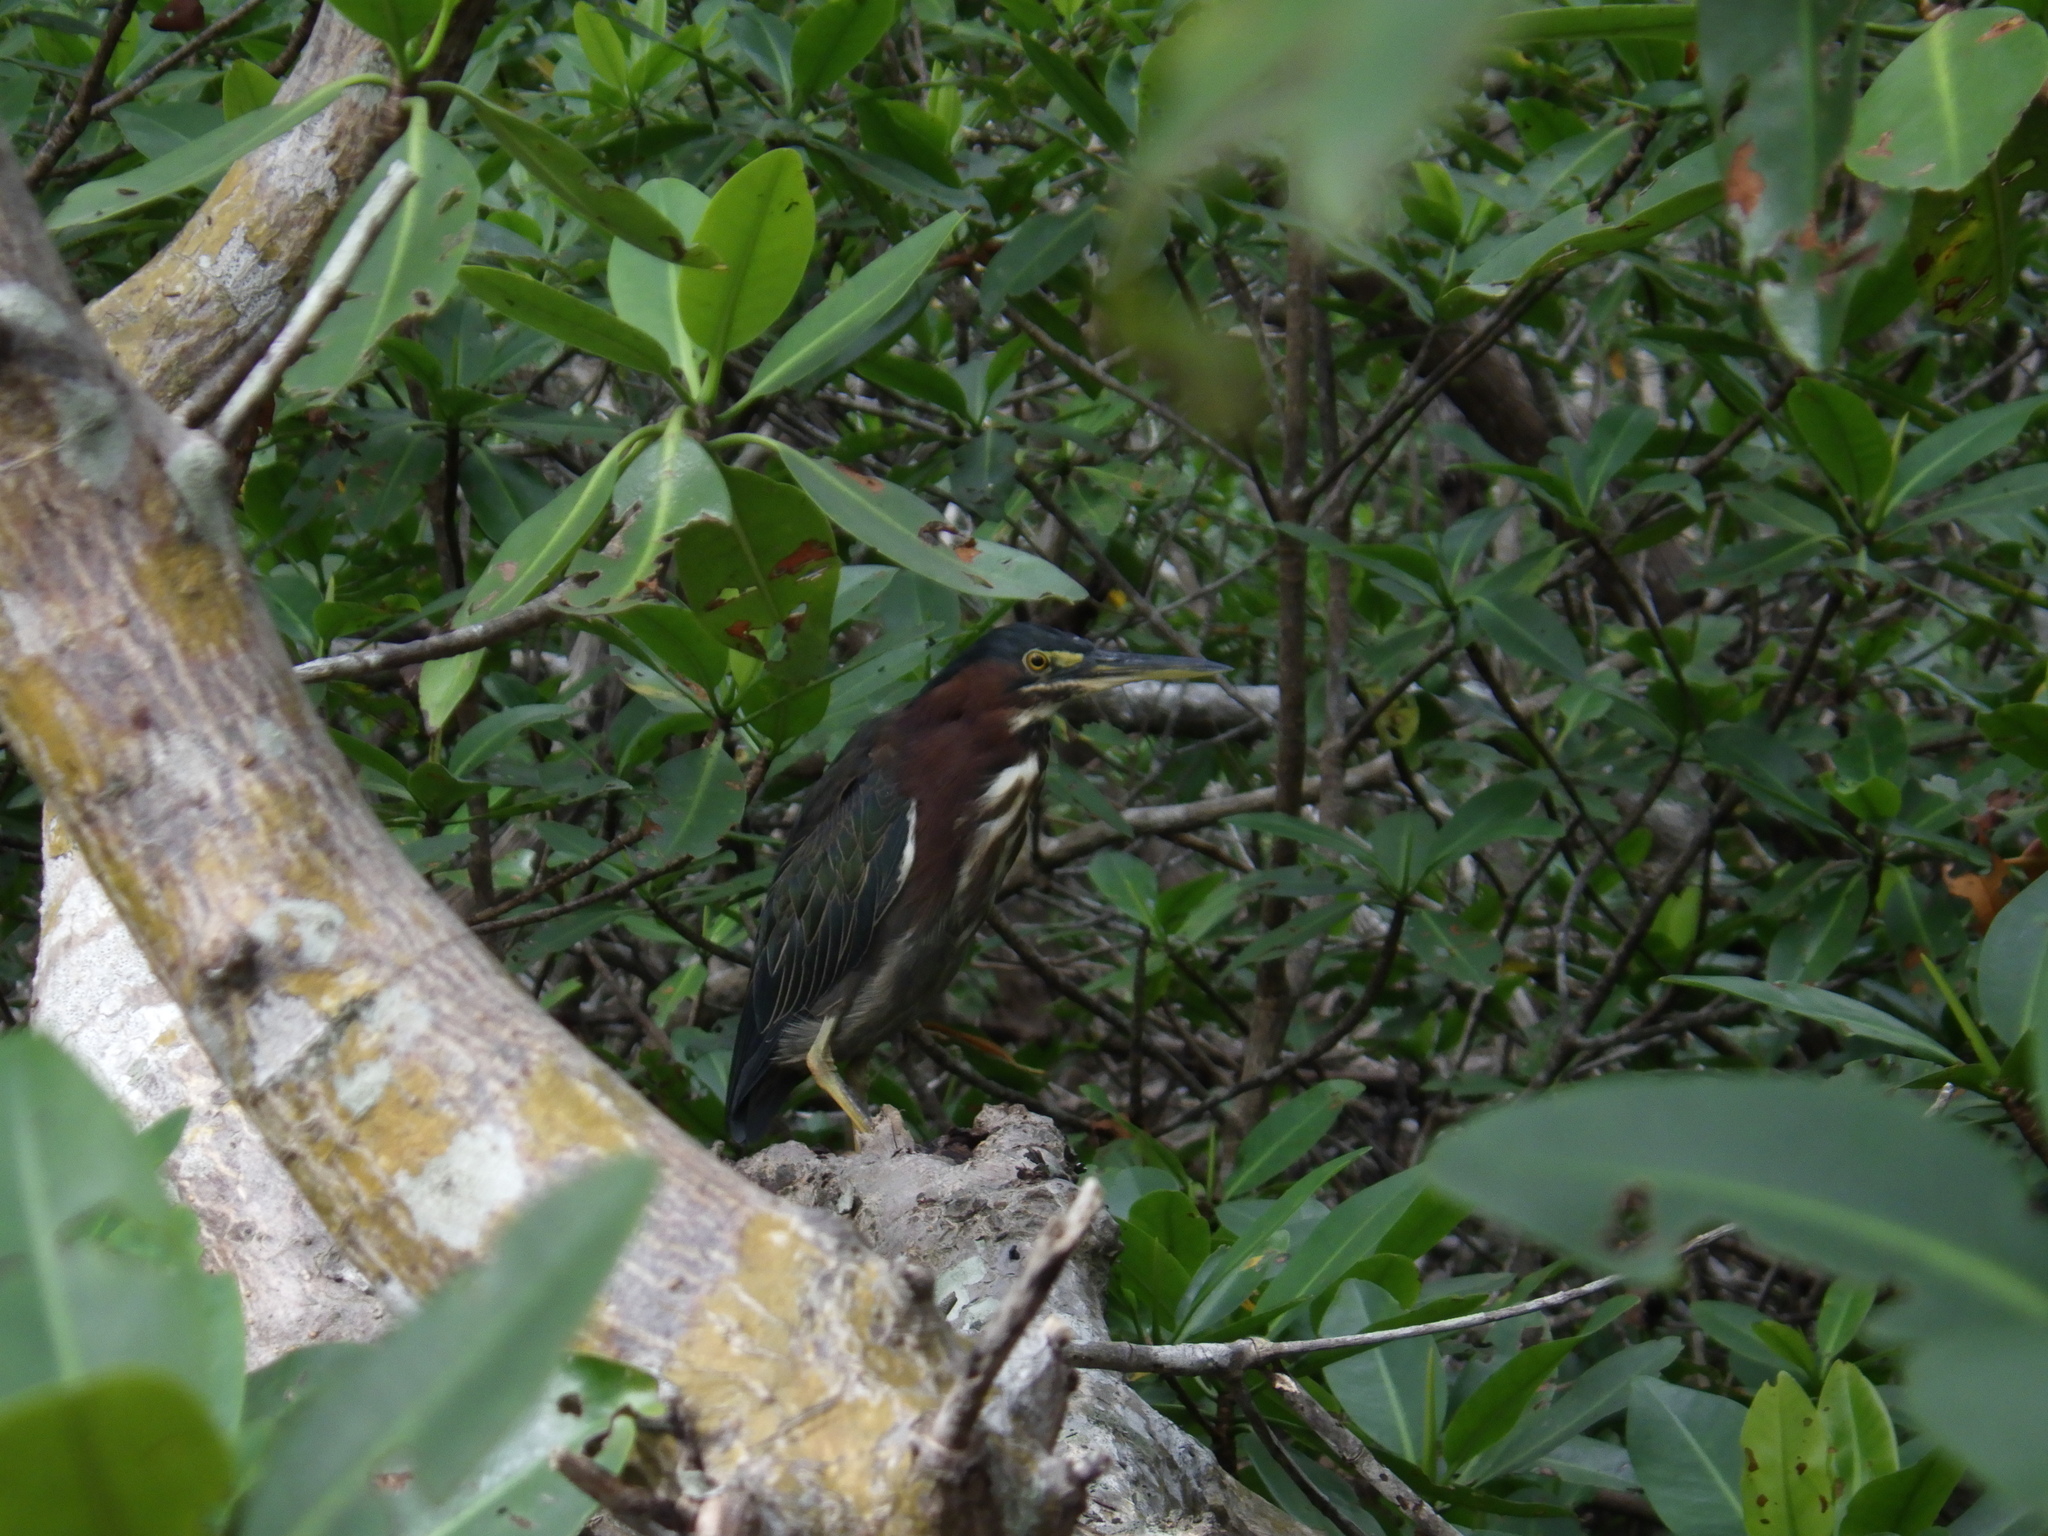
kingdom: Animalia
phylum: Chordata
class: Aves
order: Pelecaniformes
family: Ardeidae
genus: Butorides
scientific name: Butorides virescens
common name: Green heron
